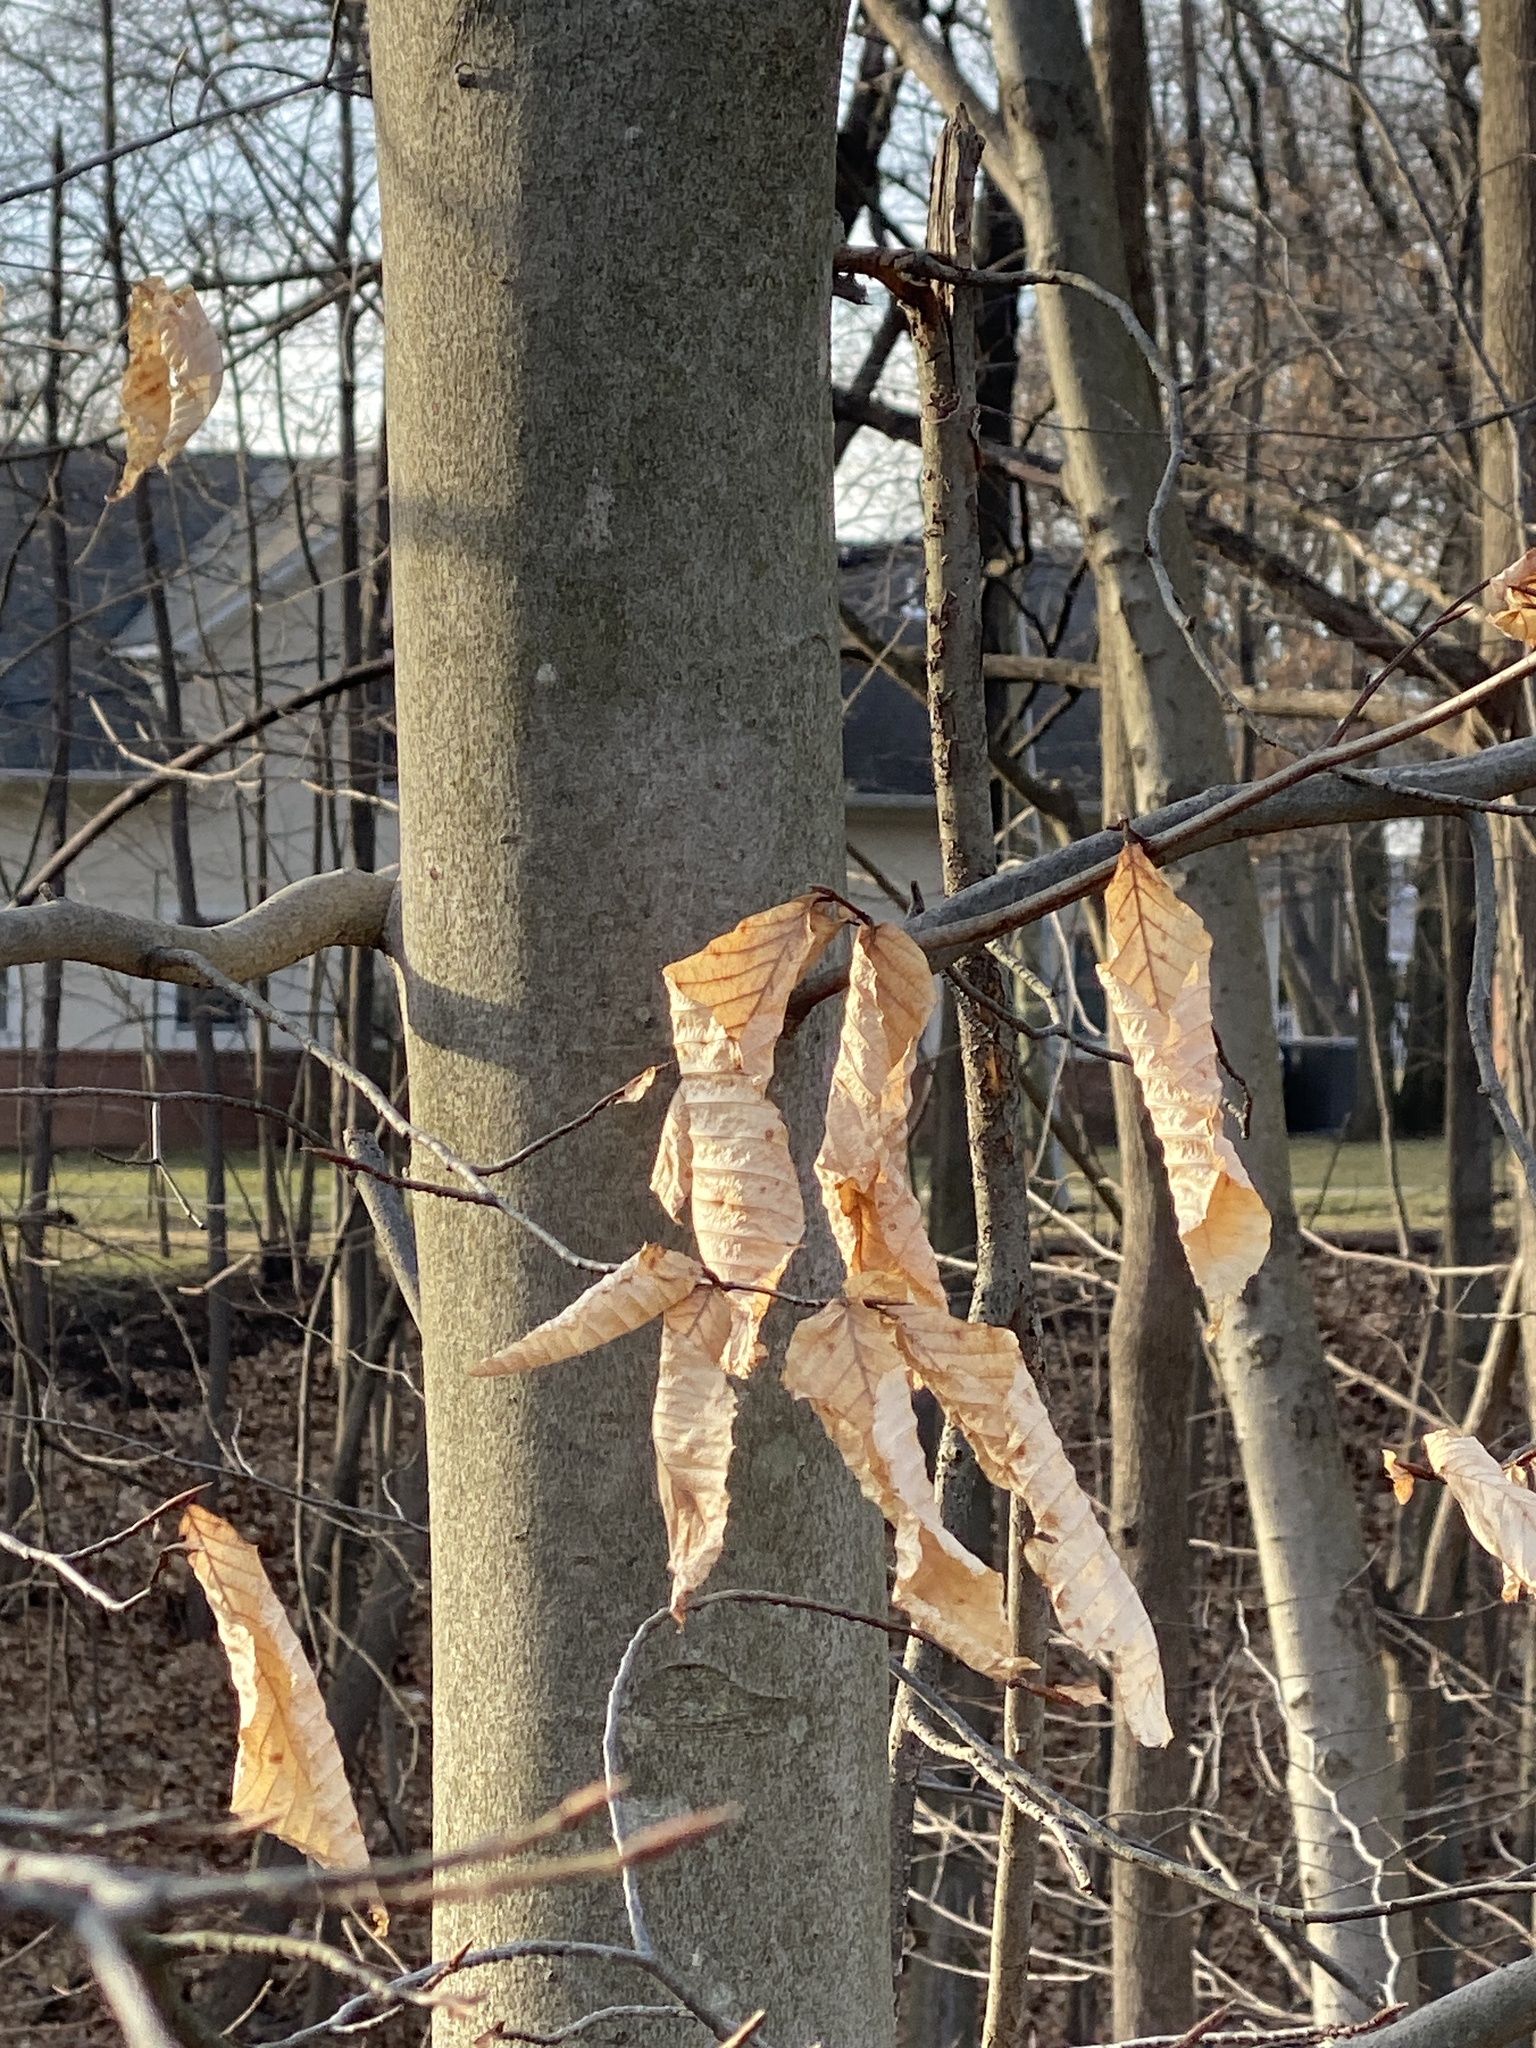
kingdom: Plantae
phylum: Tracheophyta
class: Magnoliopsida
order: Fagales
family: Fagaceae
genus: Fagus
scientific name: Fagus grandifolia
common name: American beech
